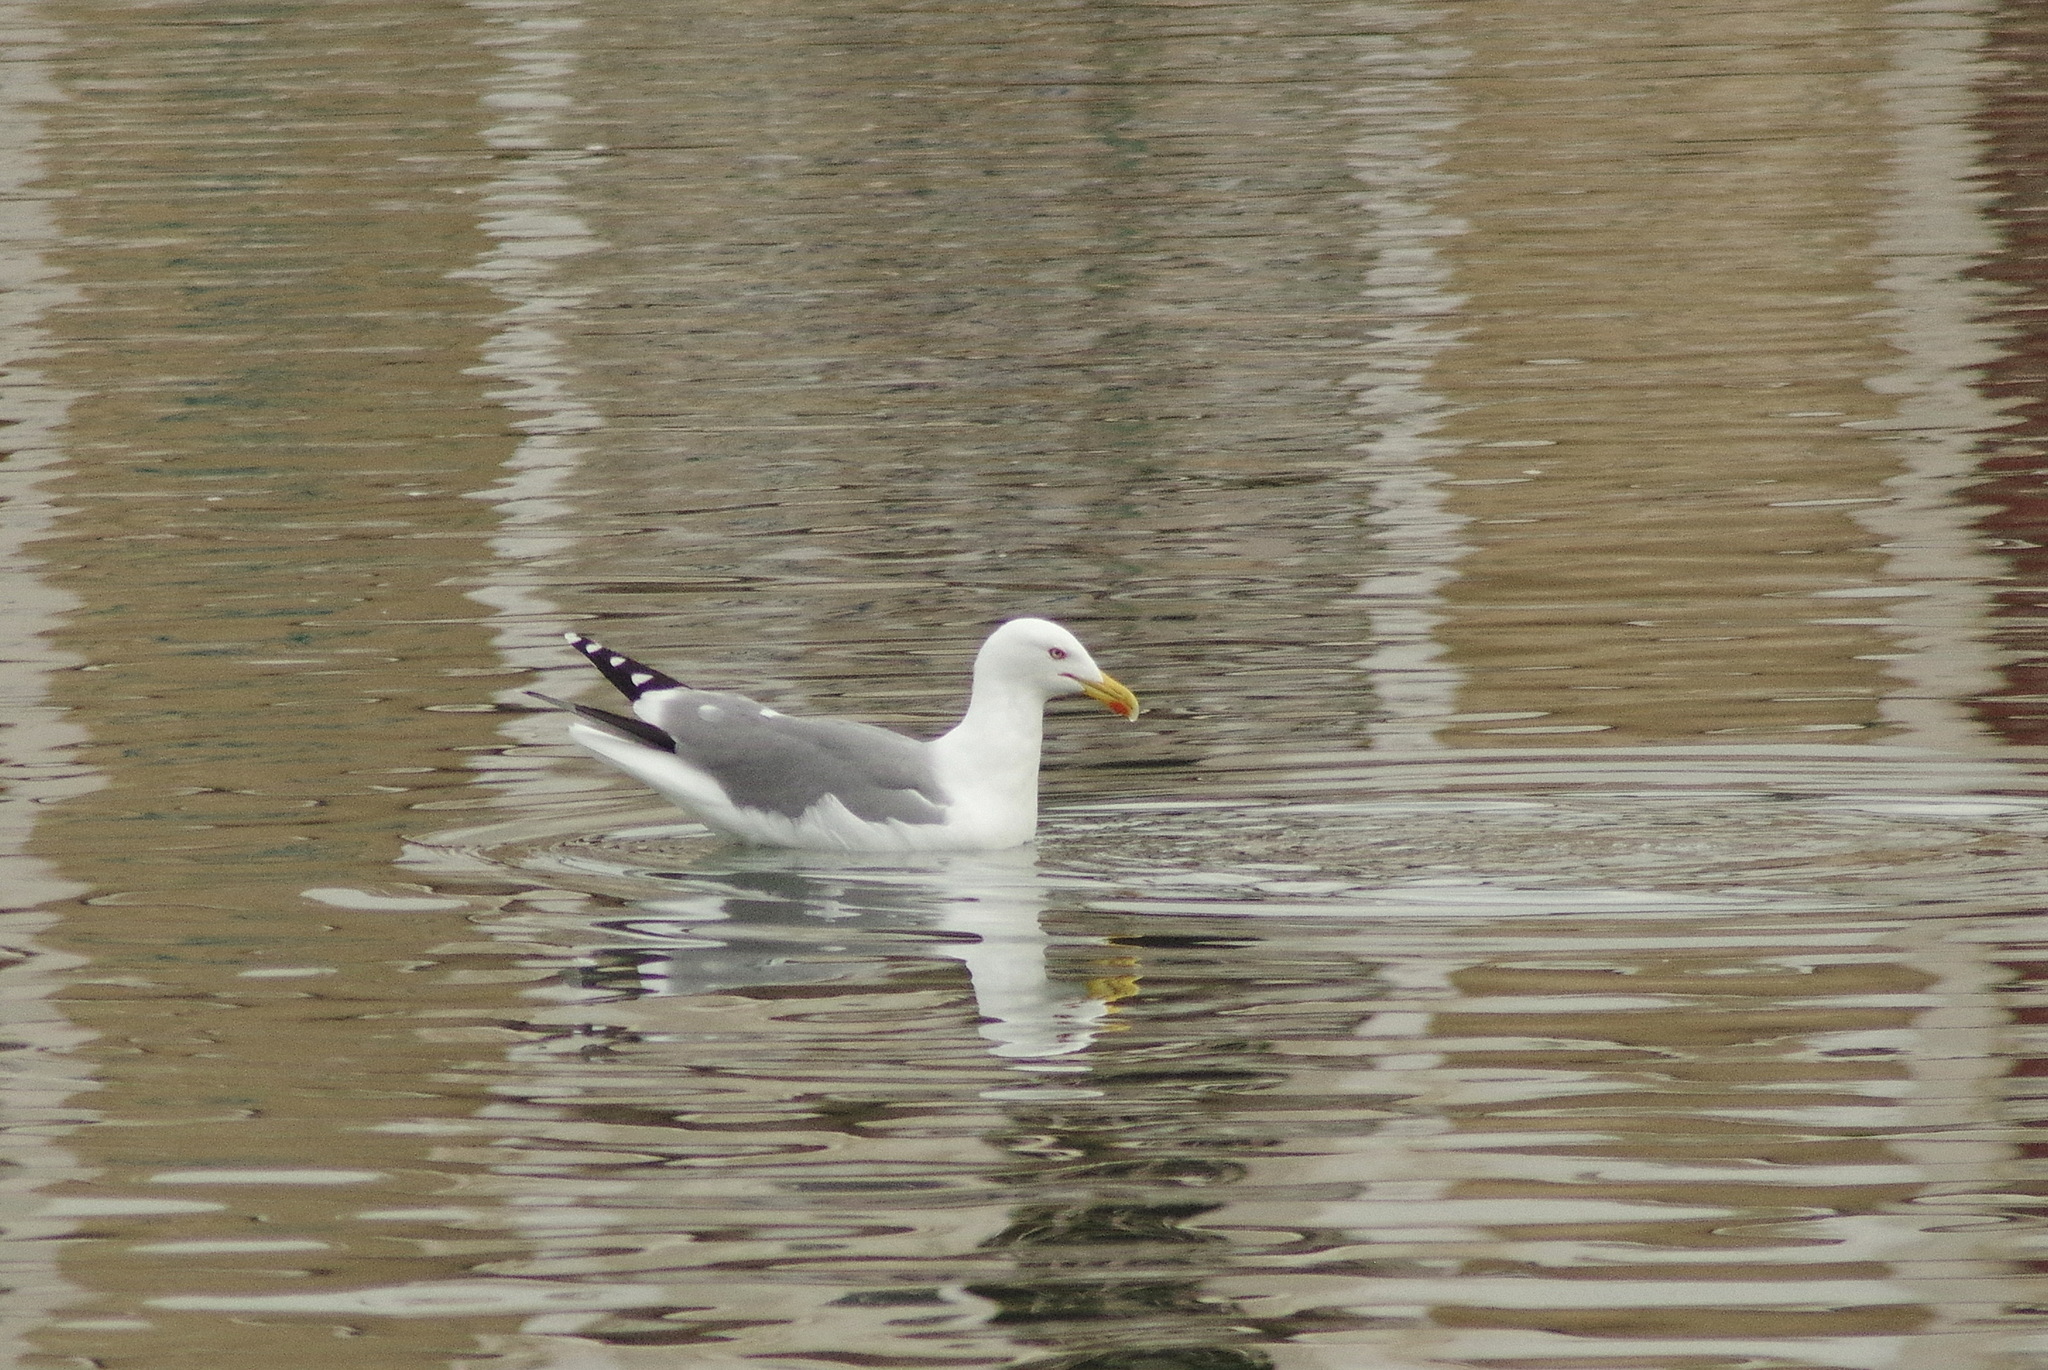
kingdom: Animalia
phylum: Chordata
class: Aves
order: Charadriiformes
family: Laridae
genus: Larus
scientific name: Larus michahellis
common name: Yellow-legged gull
